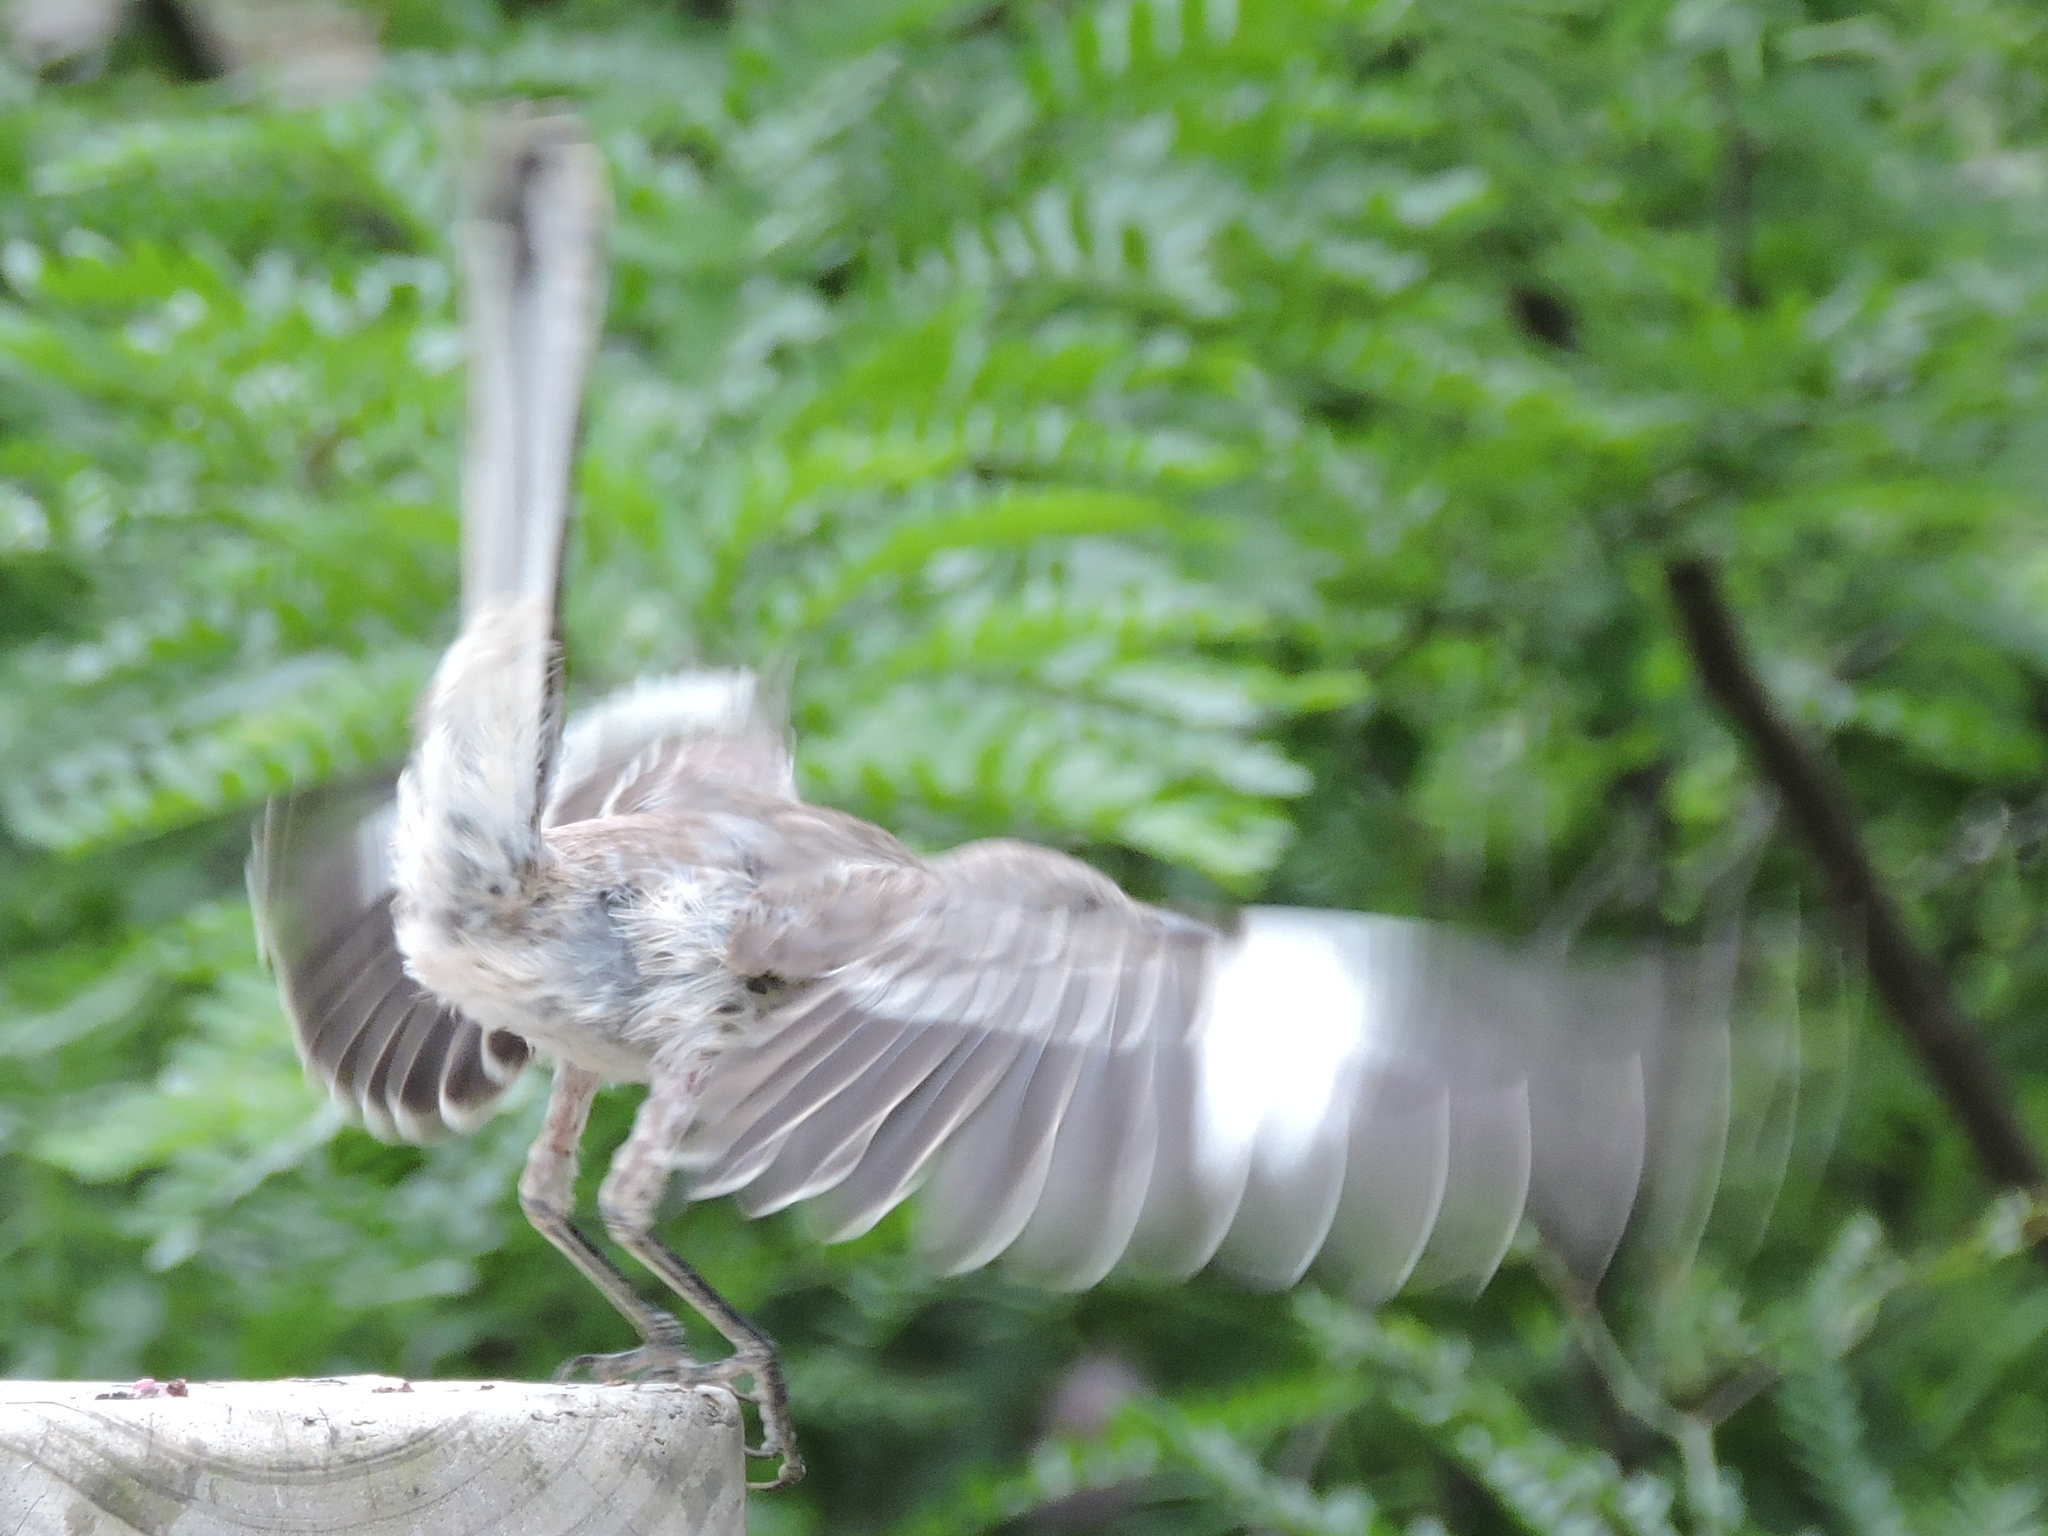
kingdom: Animalia
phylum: Chordata
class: Aves
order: Passeriformes
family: Mimidae
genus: Mimus
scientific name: Mimus polyglottos
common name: Northern mockingbird
